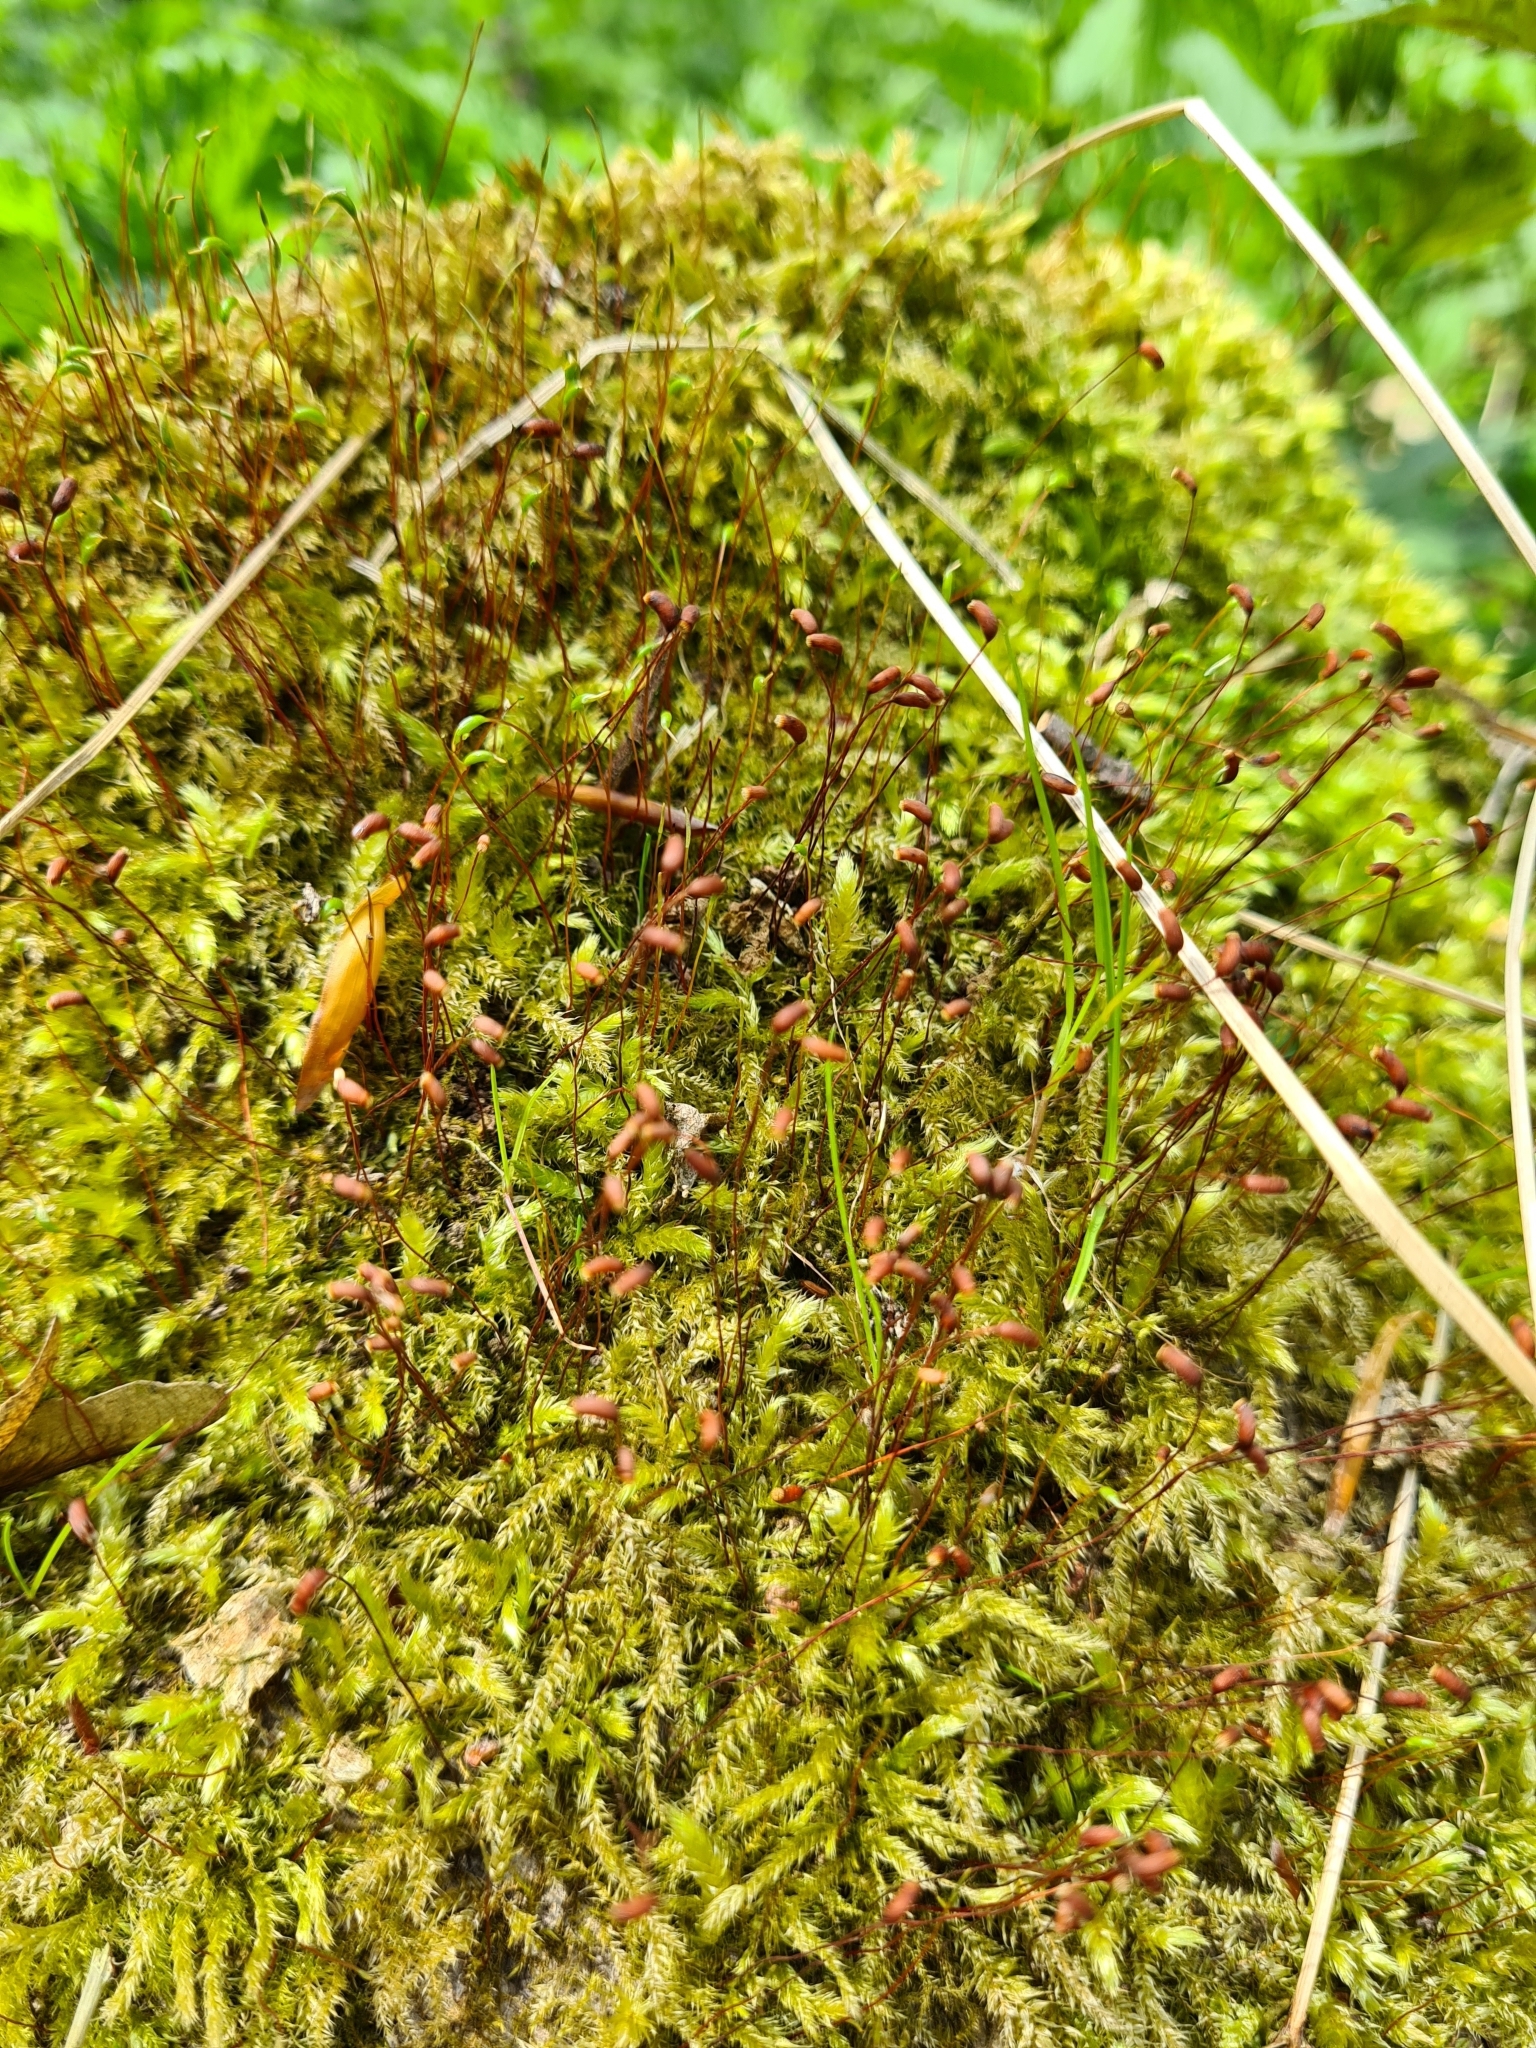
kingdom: Plantae
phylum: Bryophyta
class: Bryopsida
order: Hypnales
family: Amblystegiaceae
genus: Amblystegium
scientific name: Amblystegium serpens
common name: Jurkatzka's feather moss
